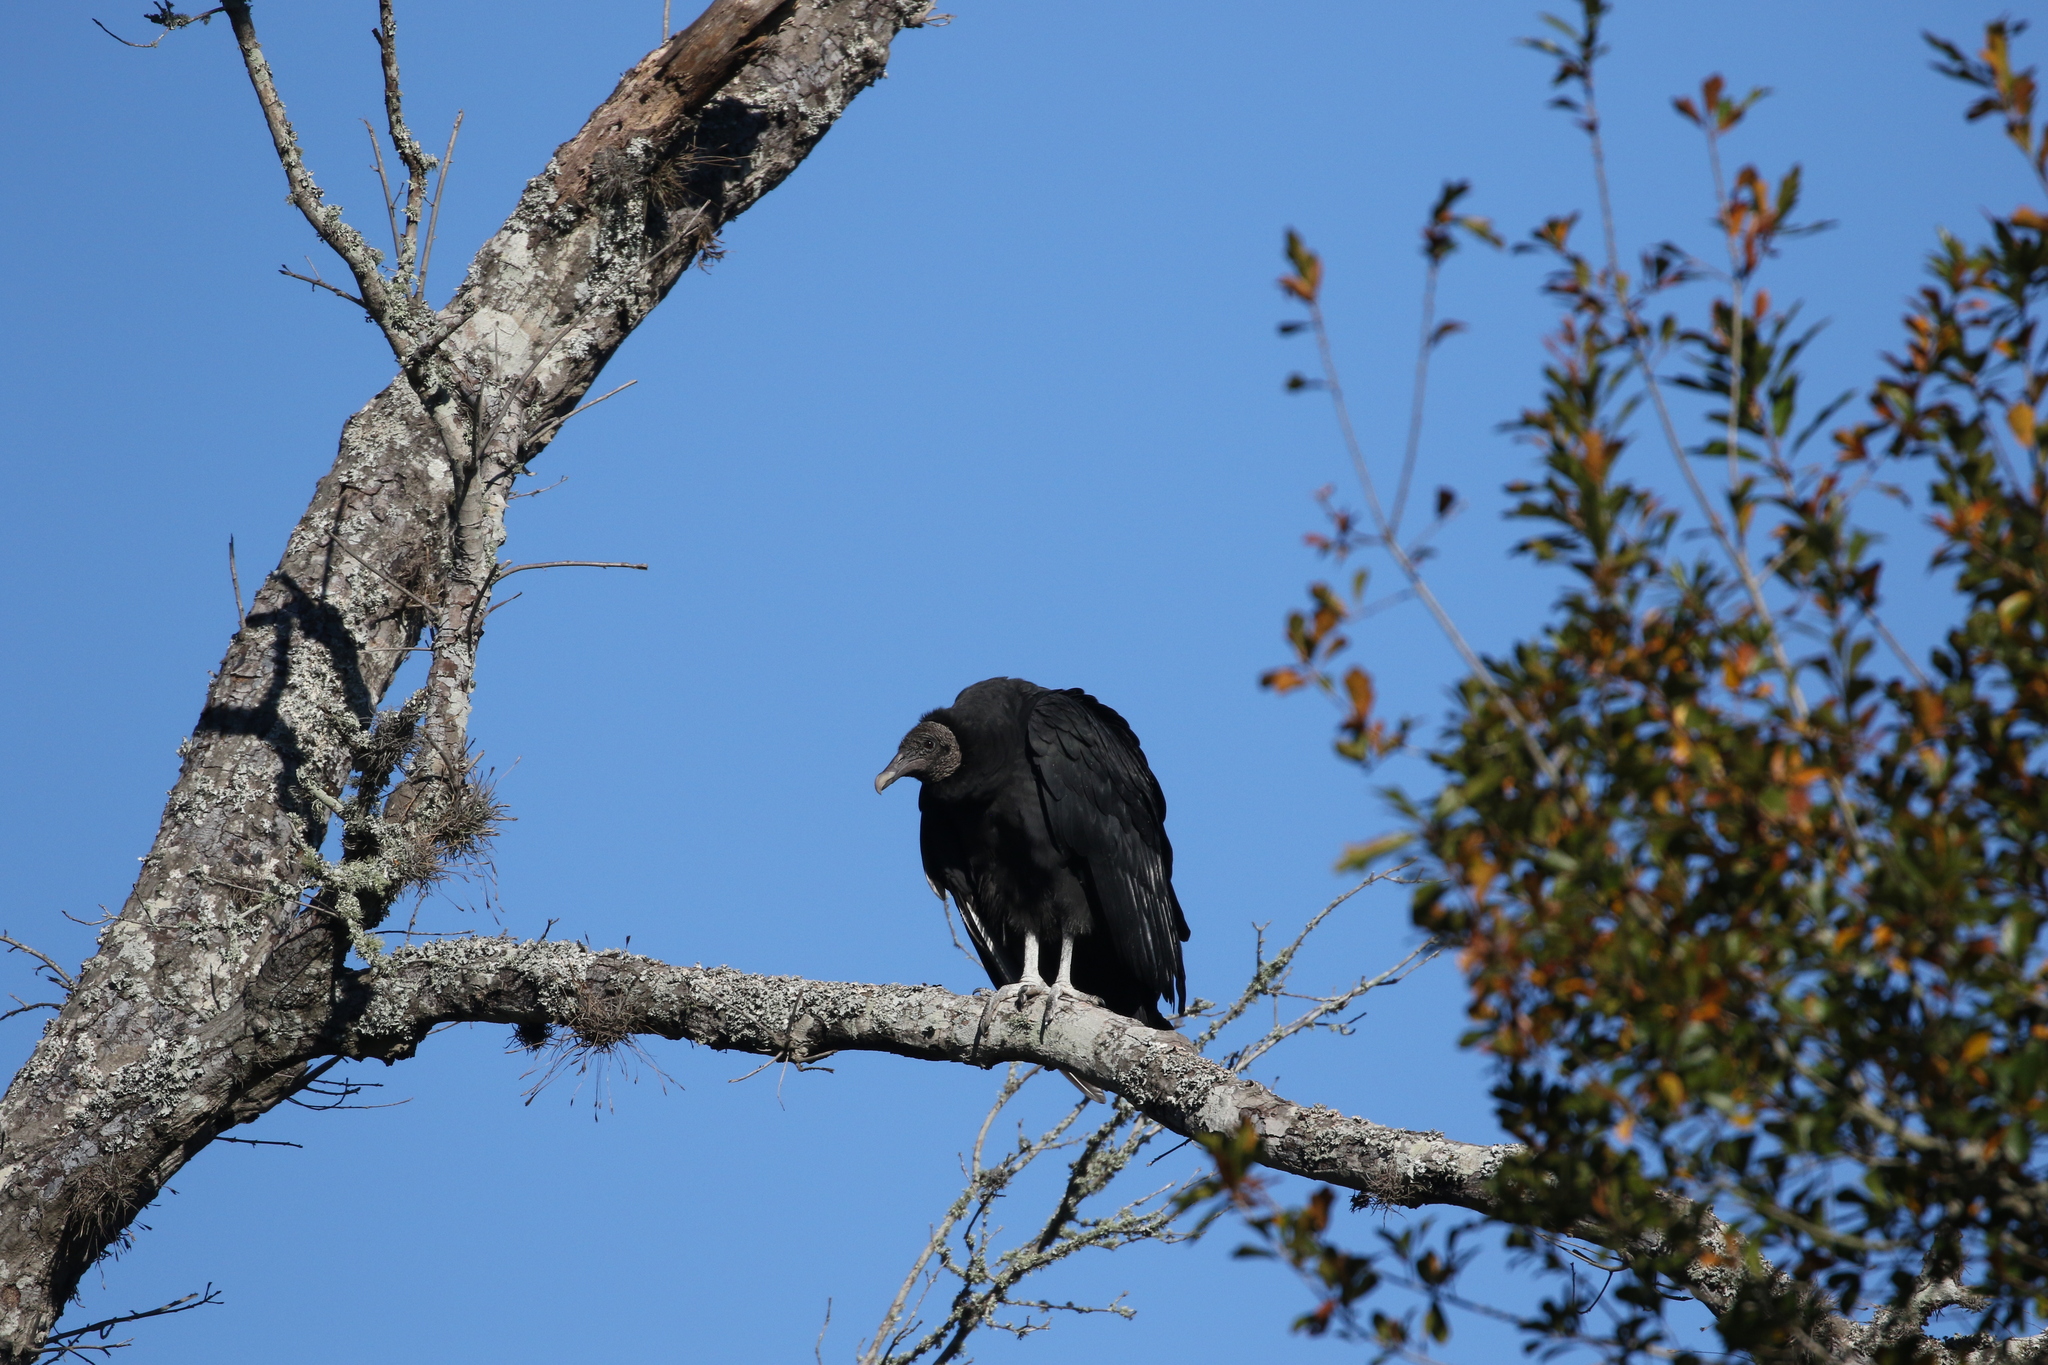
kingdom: Animalia
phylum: Chordata
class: Aves
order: Accipitriformes
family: Cathartidae
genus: Coragyps
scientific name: Coragyps atratus
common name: Black vulture
